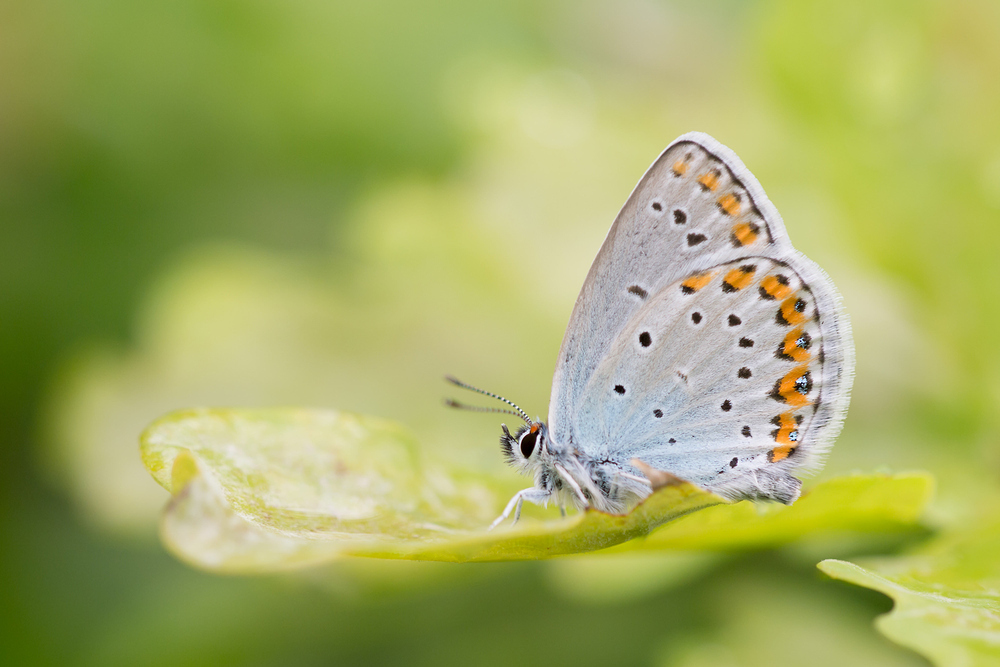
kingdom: Animalia
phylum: Arthropoda
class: Insecta
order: Lepidoptera
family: Lycaenidae
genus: Plebejus
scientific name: Plebejus argyrognomon
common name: Reverdin's blue
